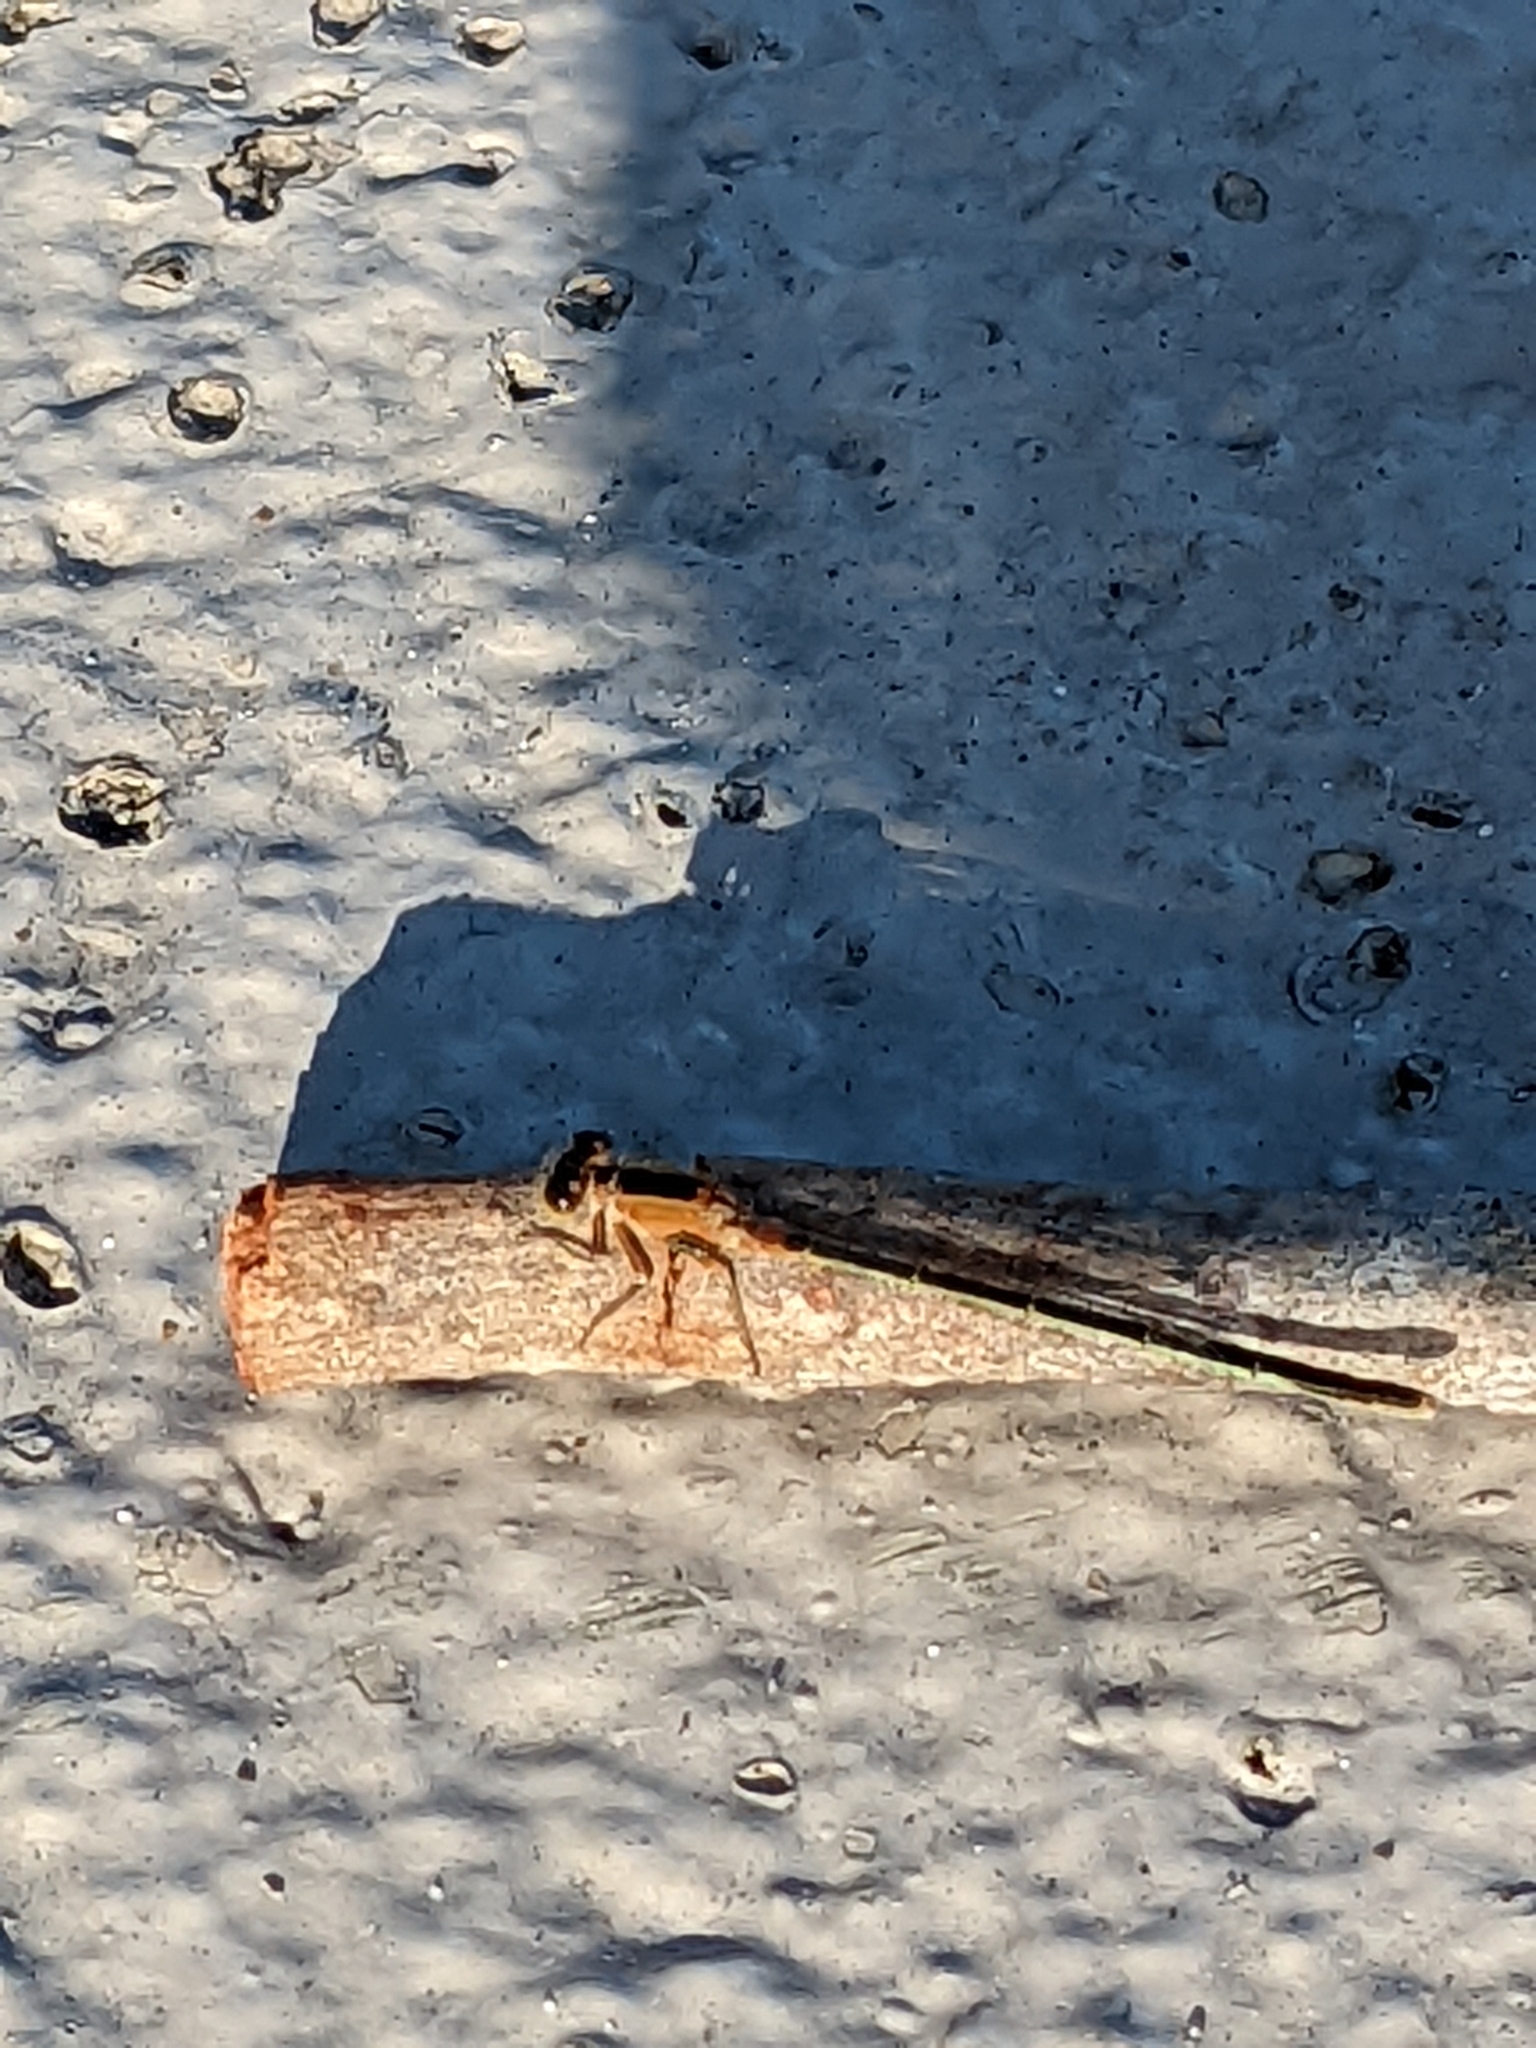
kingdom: Animalia
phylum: Arthropoda
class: Insecta
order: Odonata
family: Coenagrionidae
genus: Ischnura
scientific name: Ischnura ramburii
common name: Rambur's forktail
